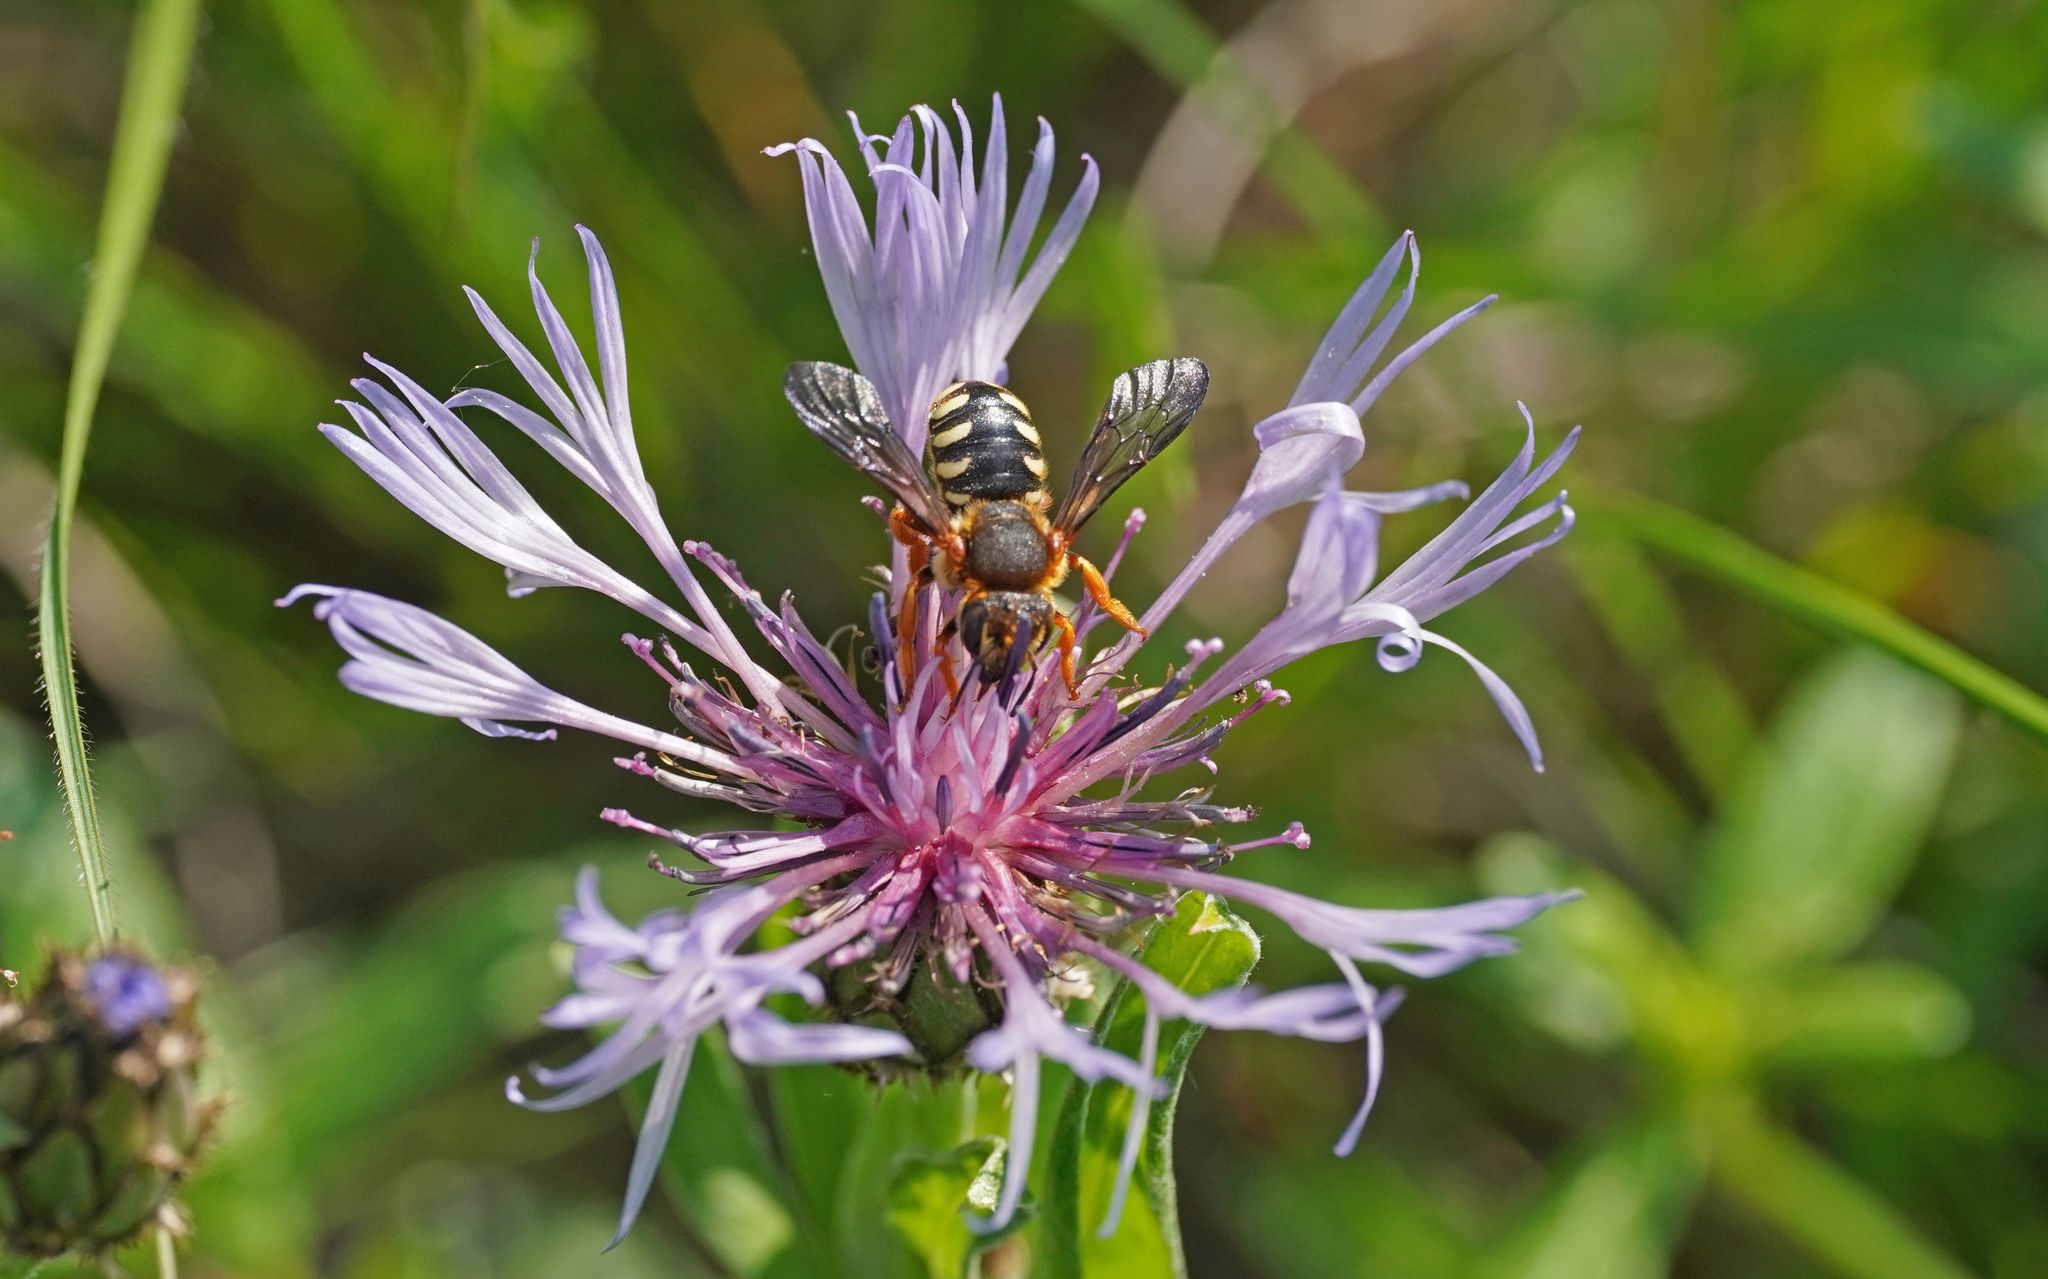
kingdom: Animalia
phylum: Arthropoda
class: Insecta
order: Hymenoptera
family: Megachilidae
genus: Rhodanthidium
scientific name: Rhodanthidium septemdentatum
